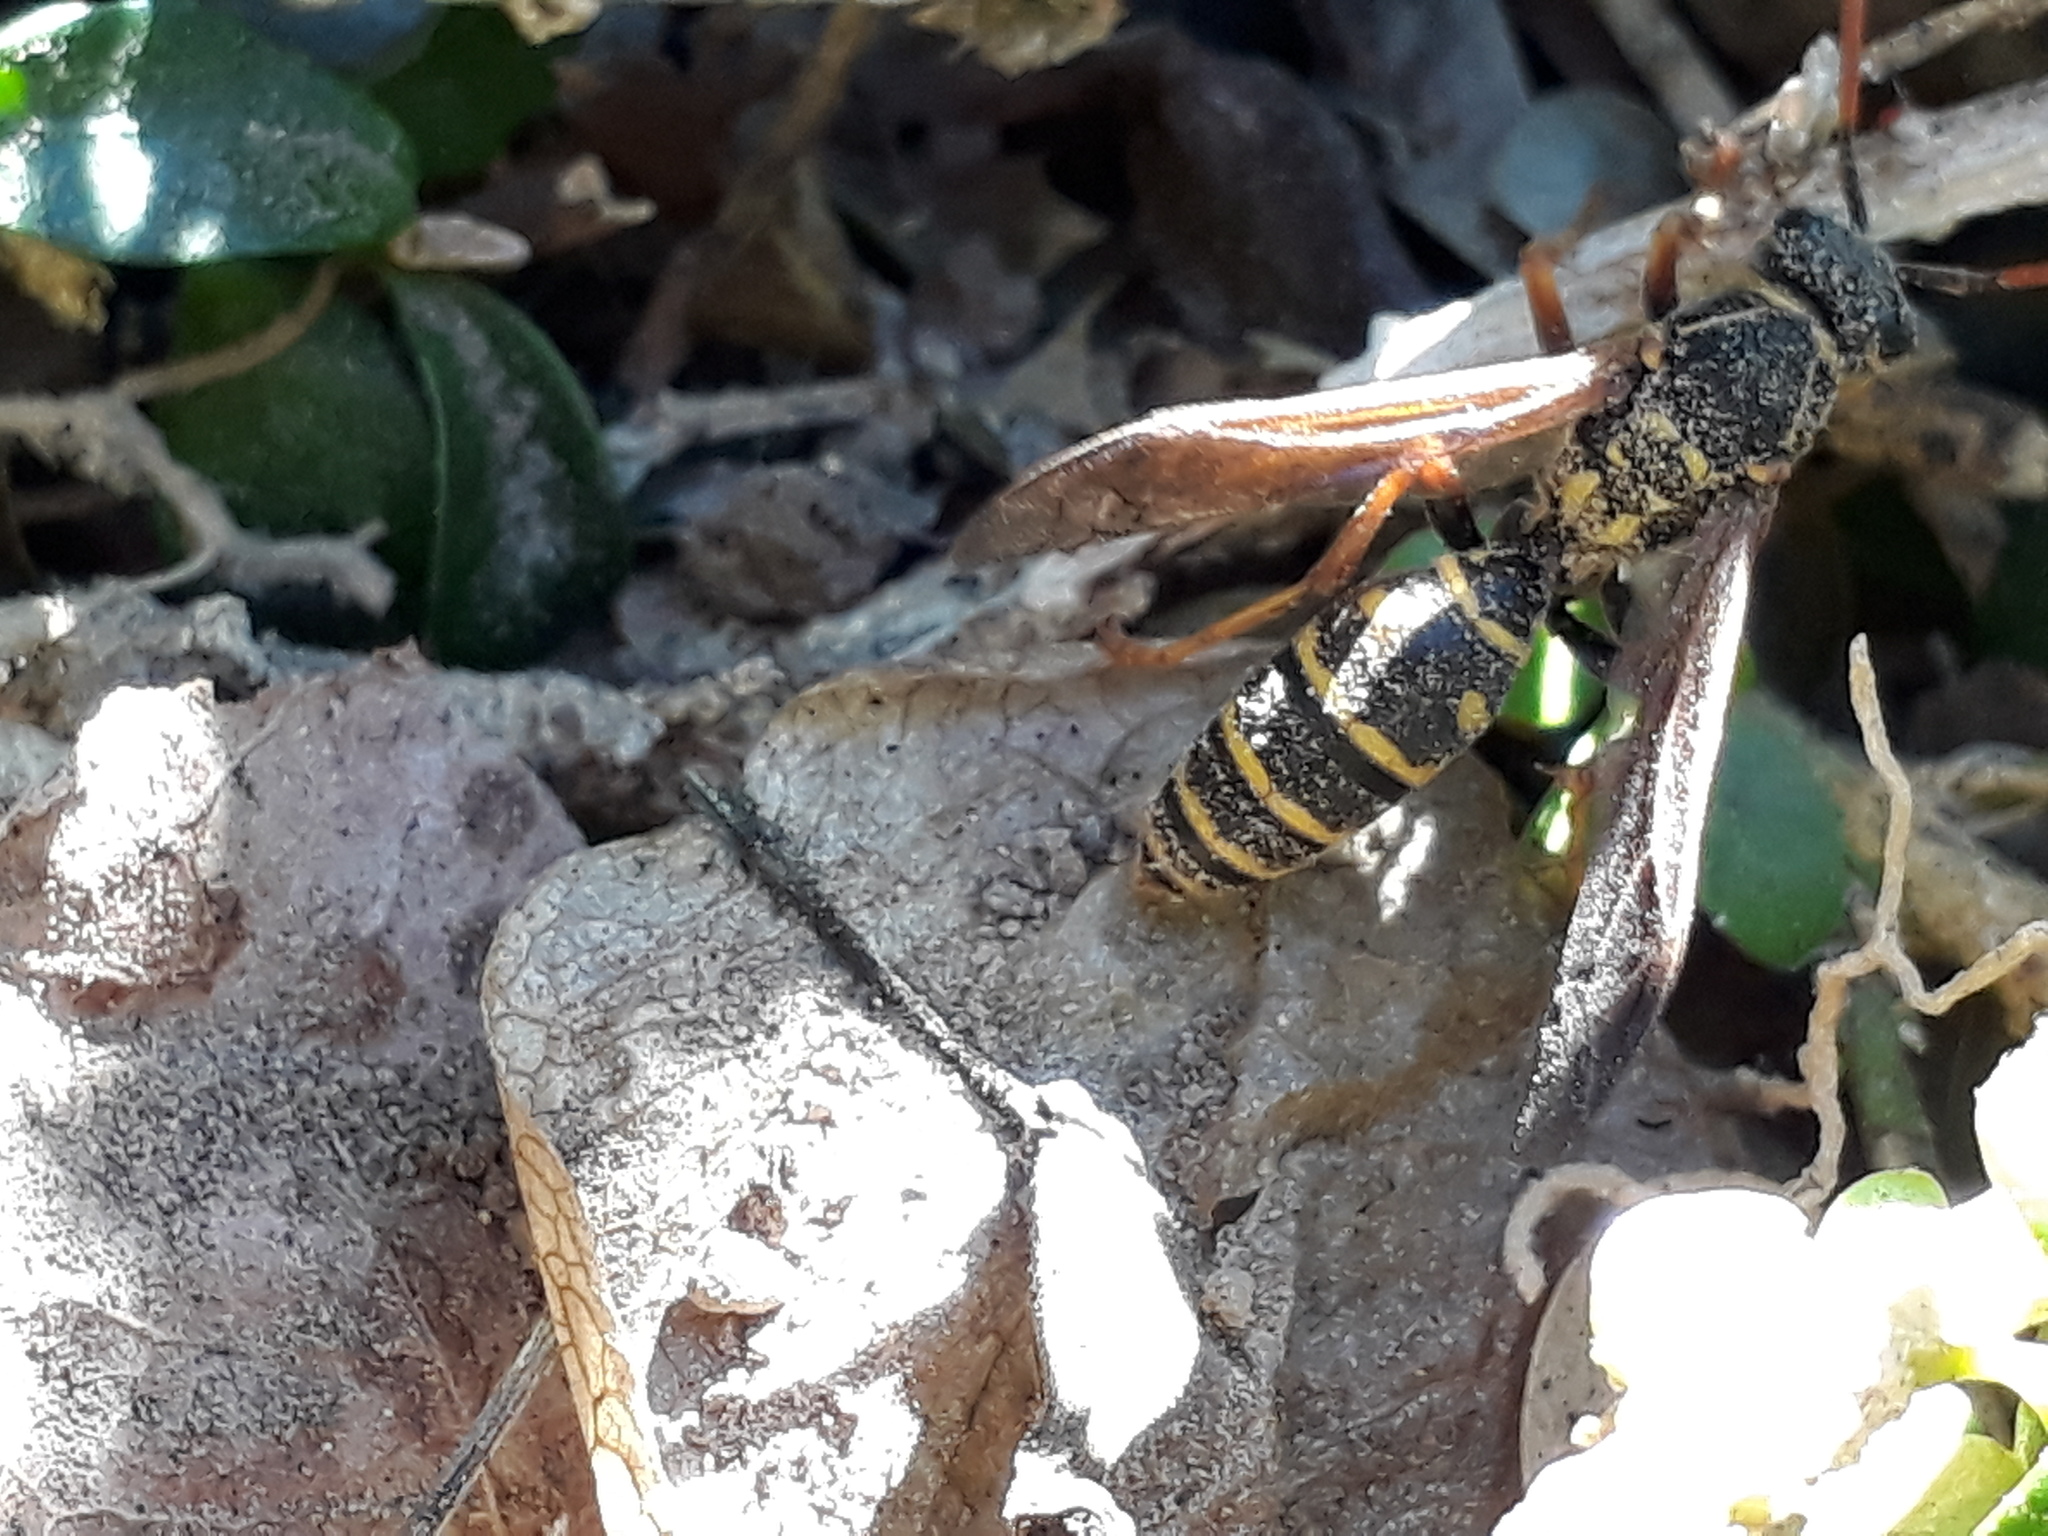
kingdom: Animalia
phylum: Arthropoda
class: Insecta
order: Hymenoptera
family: Eumenidae
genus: Polistes
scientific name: Polistes chinensis
